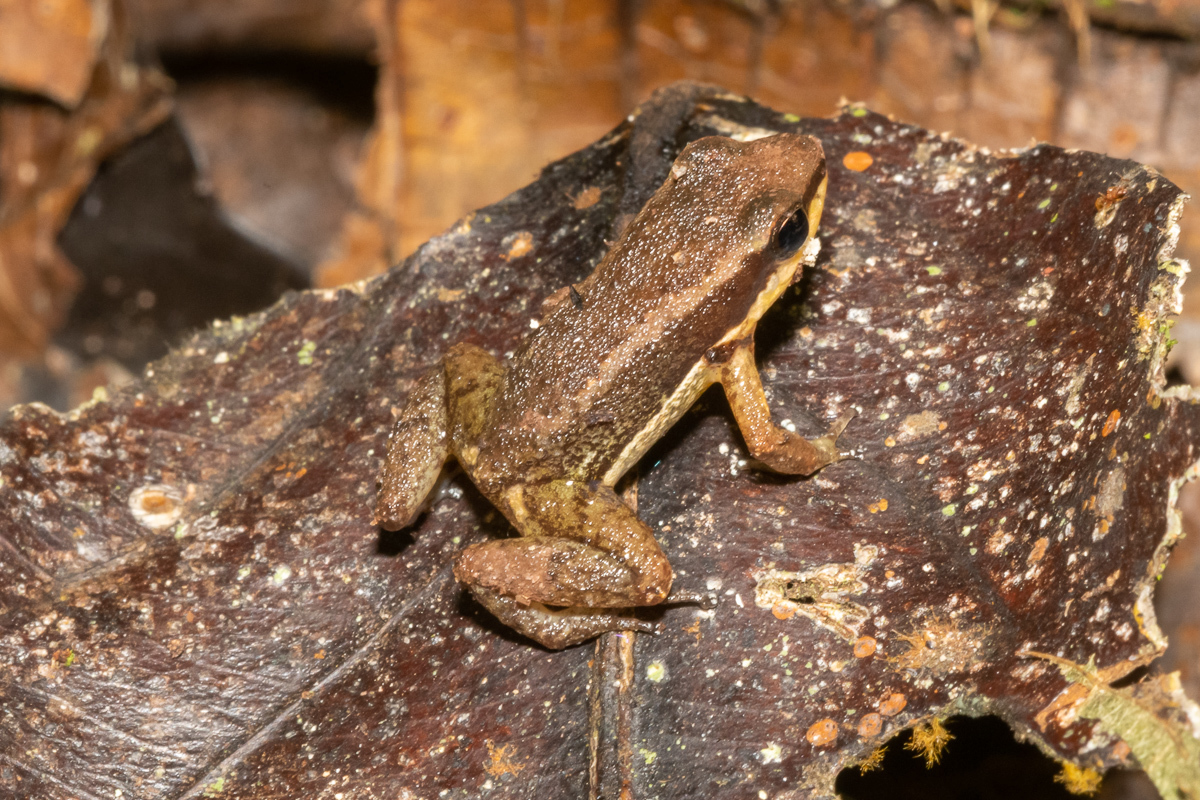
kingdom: Animalia
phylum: Chordata
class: Amphibia
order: Anura
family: Aromobatidae
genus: Allobates
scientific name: Allobates insperatus
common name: Santa cecilia rocket frog
